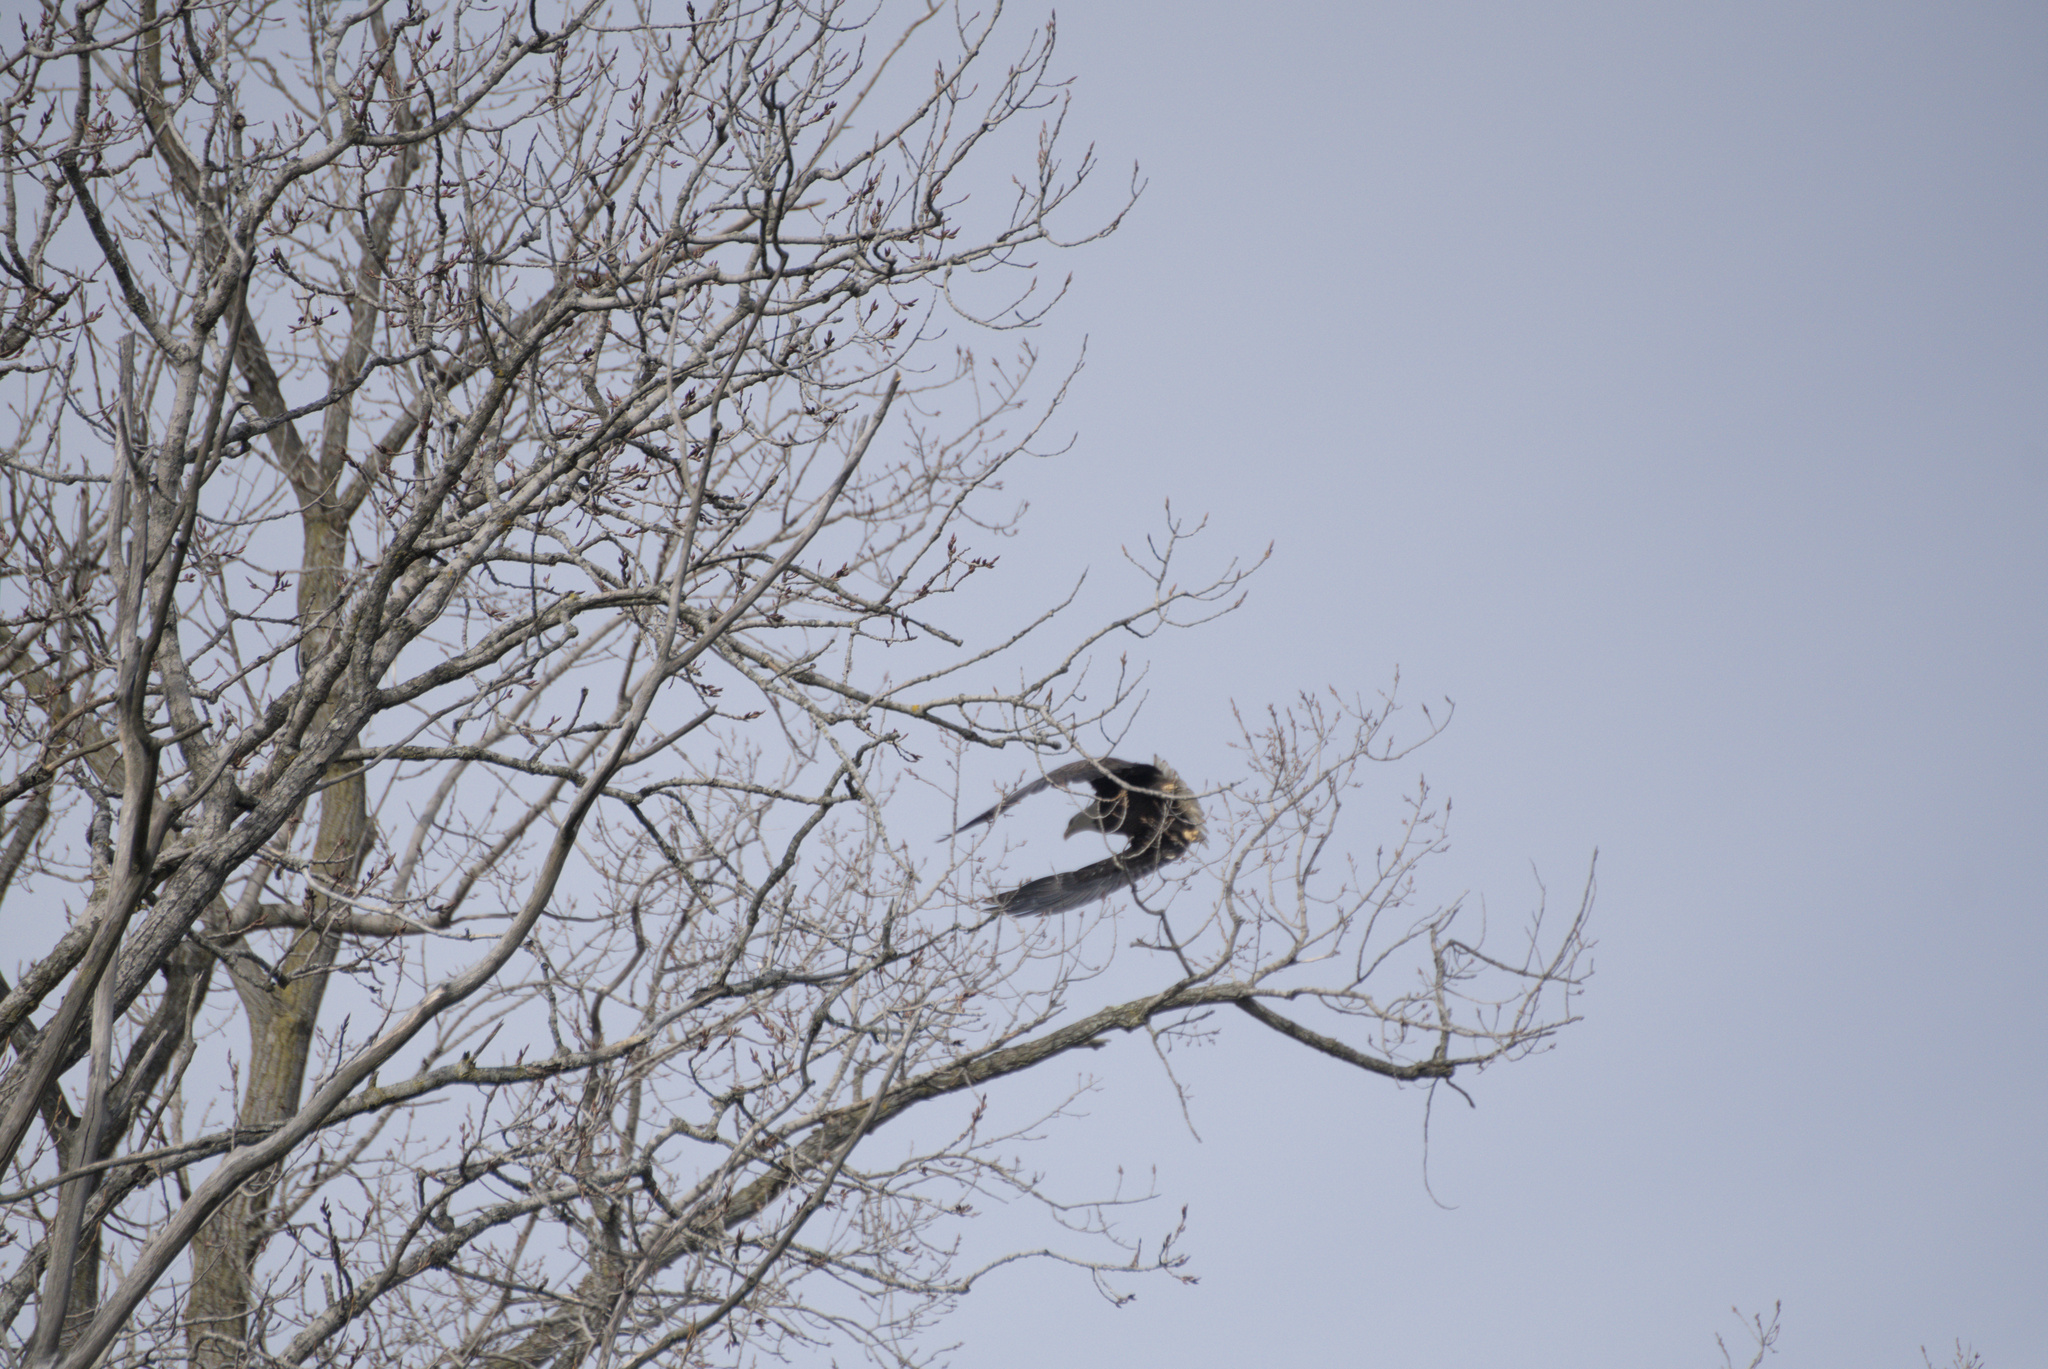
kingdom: Animalia
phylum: Chordata
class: Aves
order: Accipitriformes
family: Accipitridae
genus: Haliaeetus
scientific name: Haliaeetus leucocephalus
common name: Bald eagle
